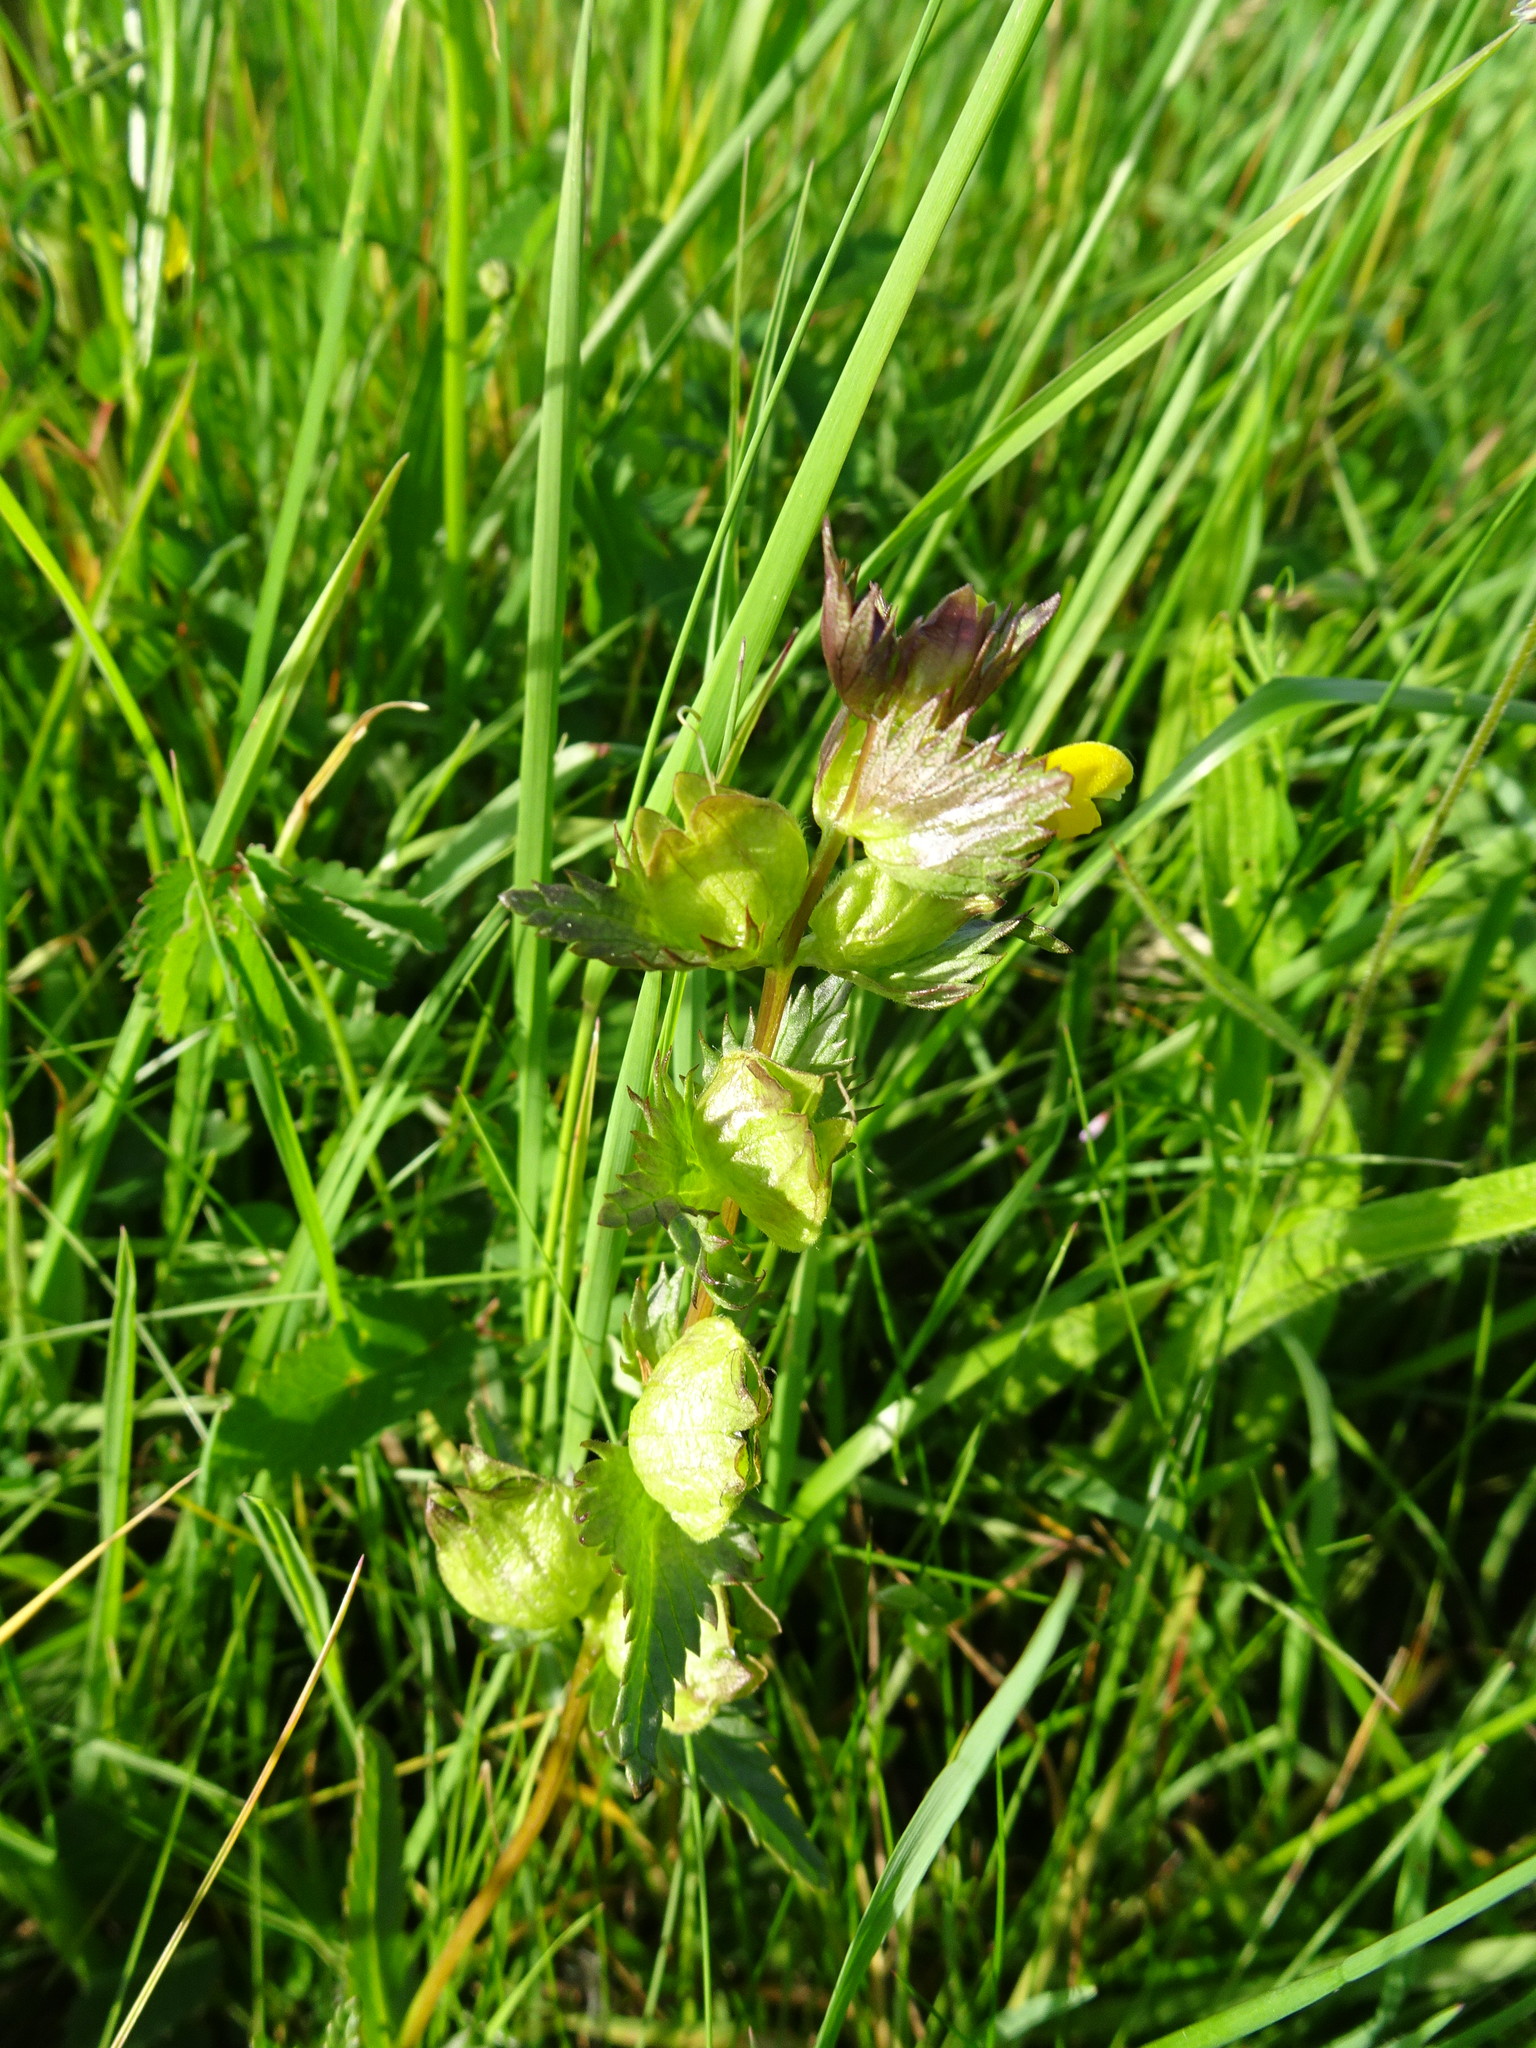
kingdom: Plantae
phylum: Tracheophyta
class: Magnoliopsida
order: Lamiales
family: Orobanchaceae
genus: Rhinanthus
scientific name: Rhinanthus minor
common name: Yellow-rattle
